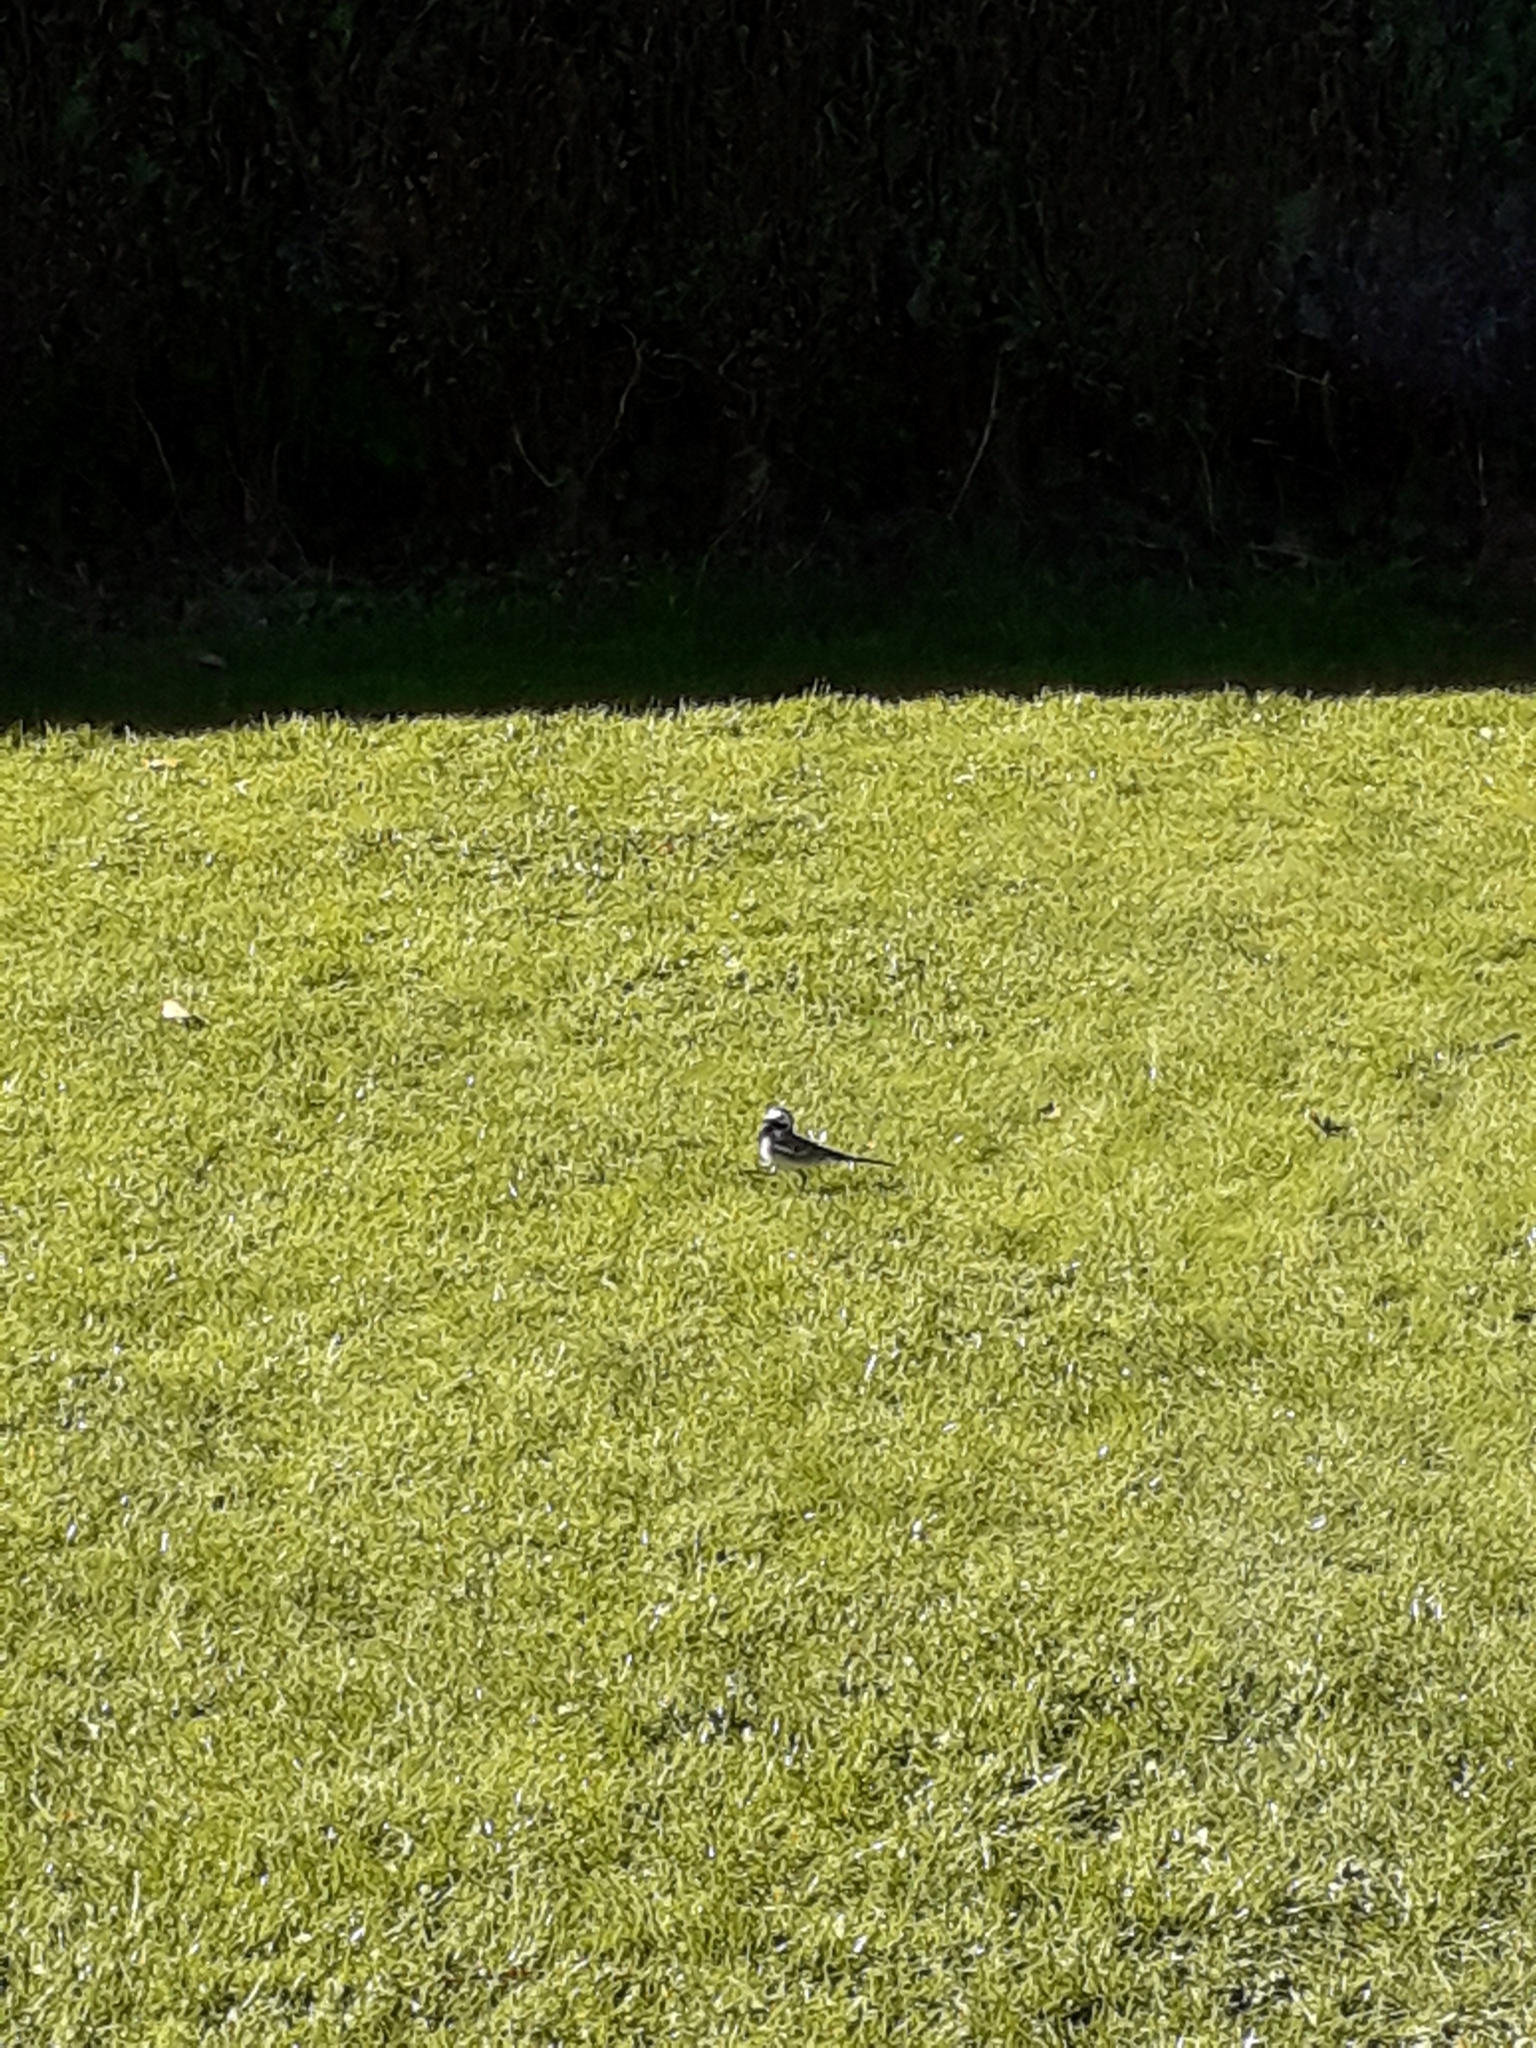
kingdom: Animalia
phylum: Chordata
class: Aves
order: Passeriformes
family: Motacillidae
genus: Motacilla
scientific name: Motacilla alba
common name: White wagtail
